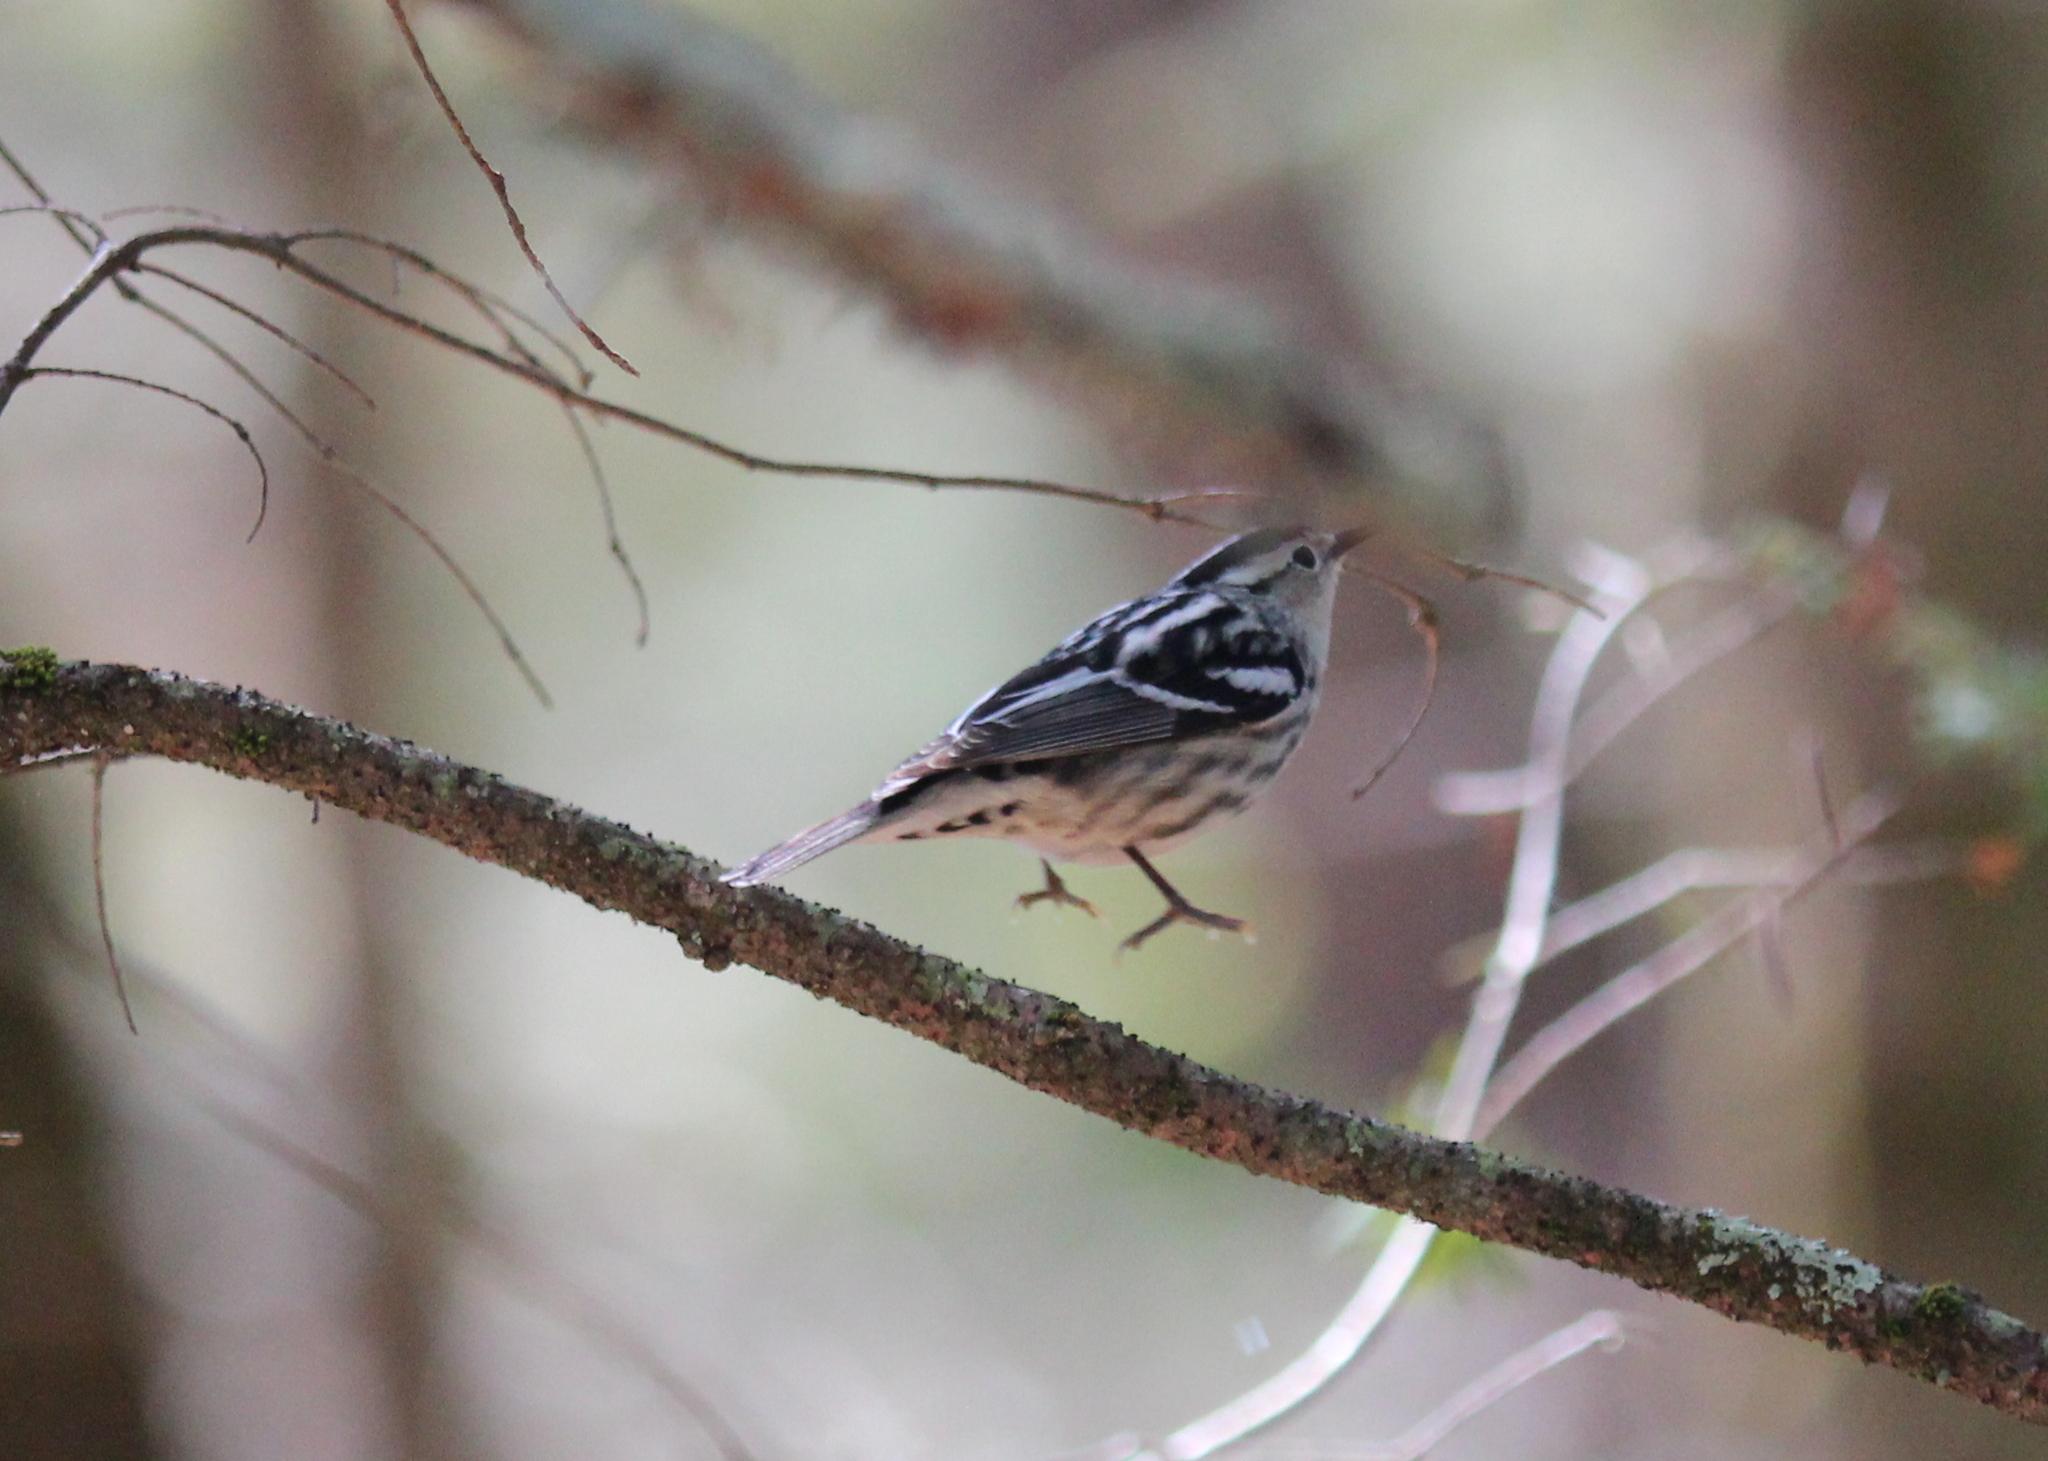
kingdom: Animalia
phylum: Chordata
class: Aves
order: Passeriformes
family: Parulidae
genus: Mniotilta
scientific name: Mniotilta varia
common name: Black-and-white warbler
